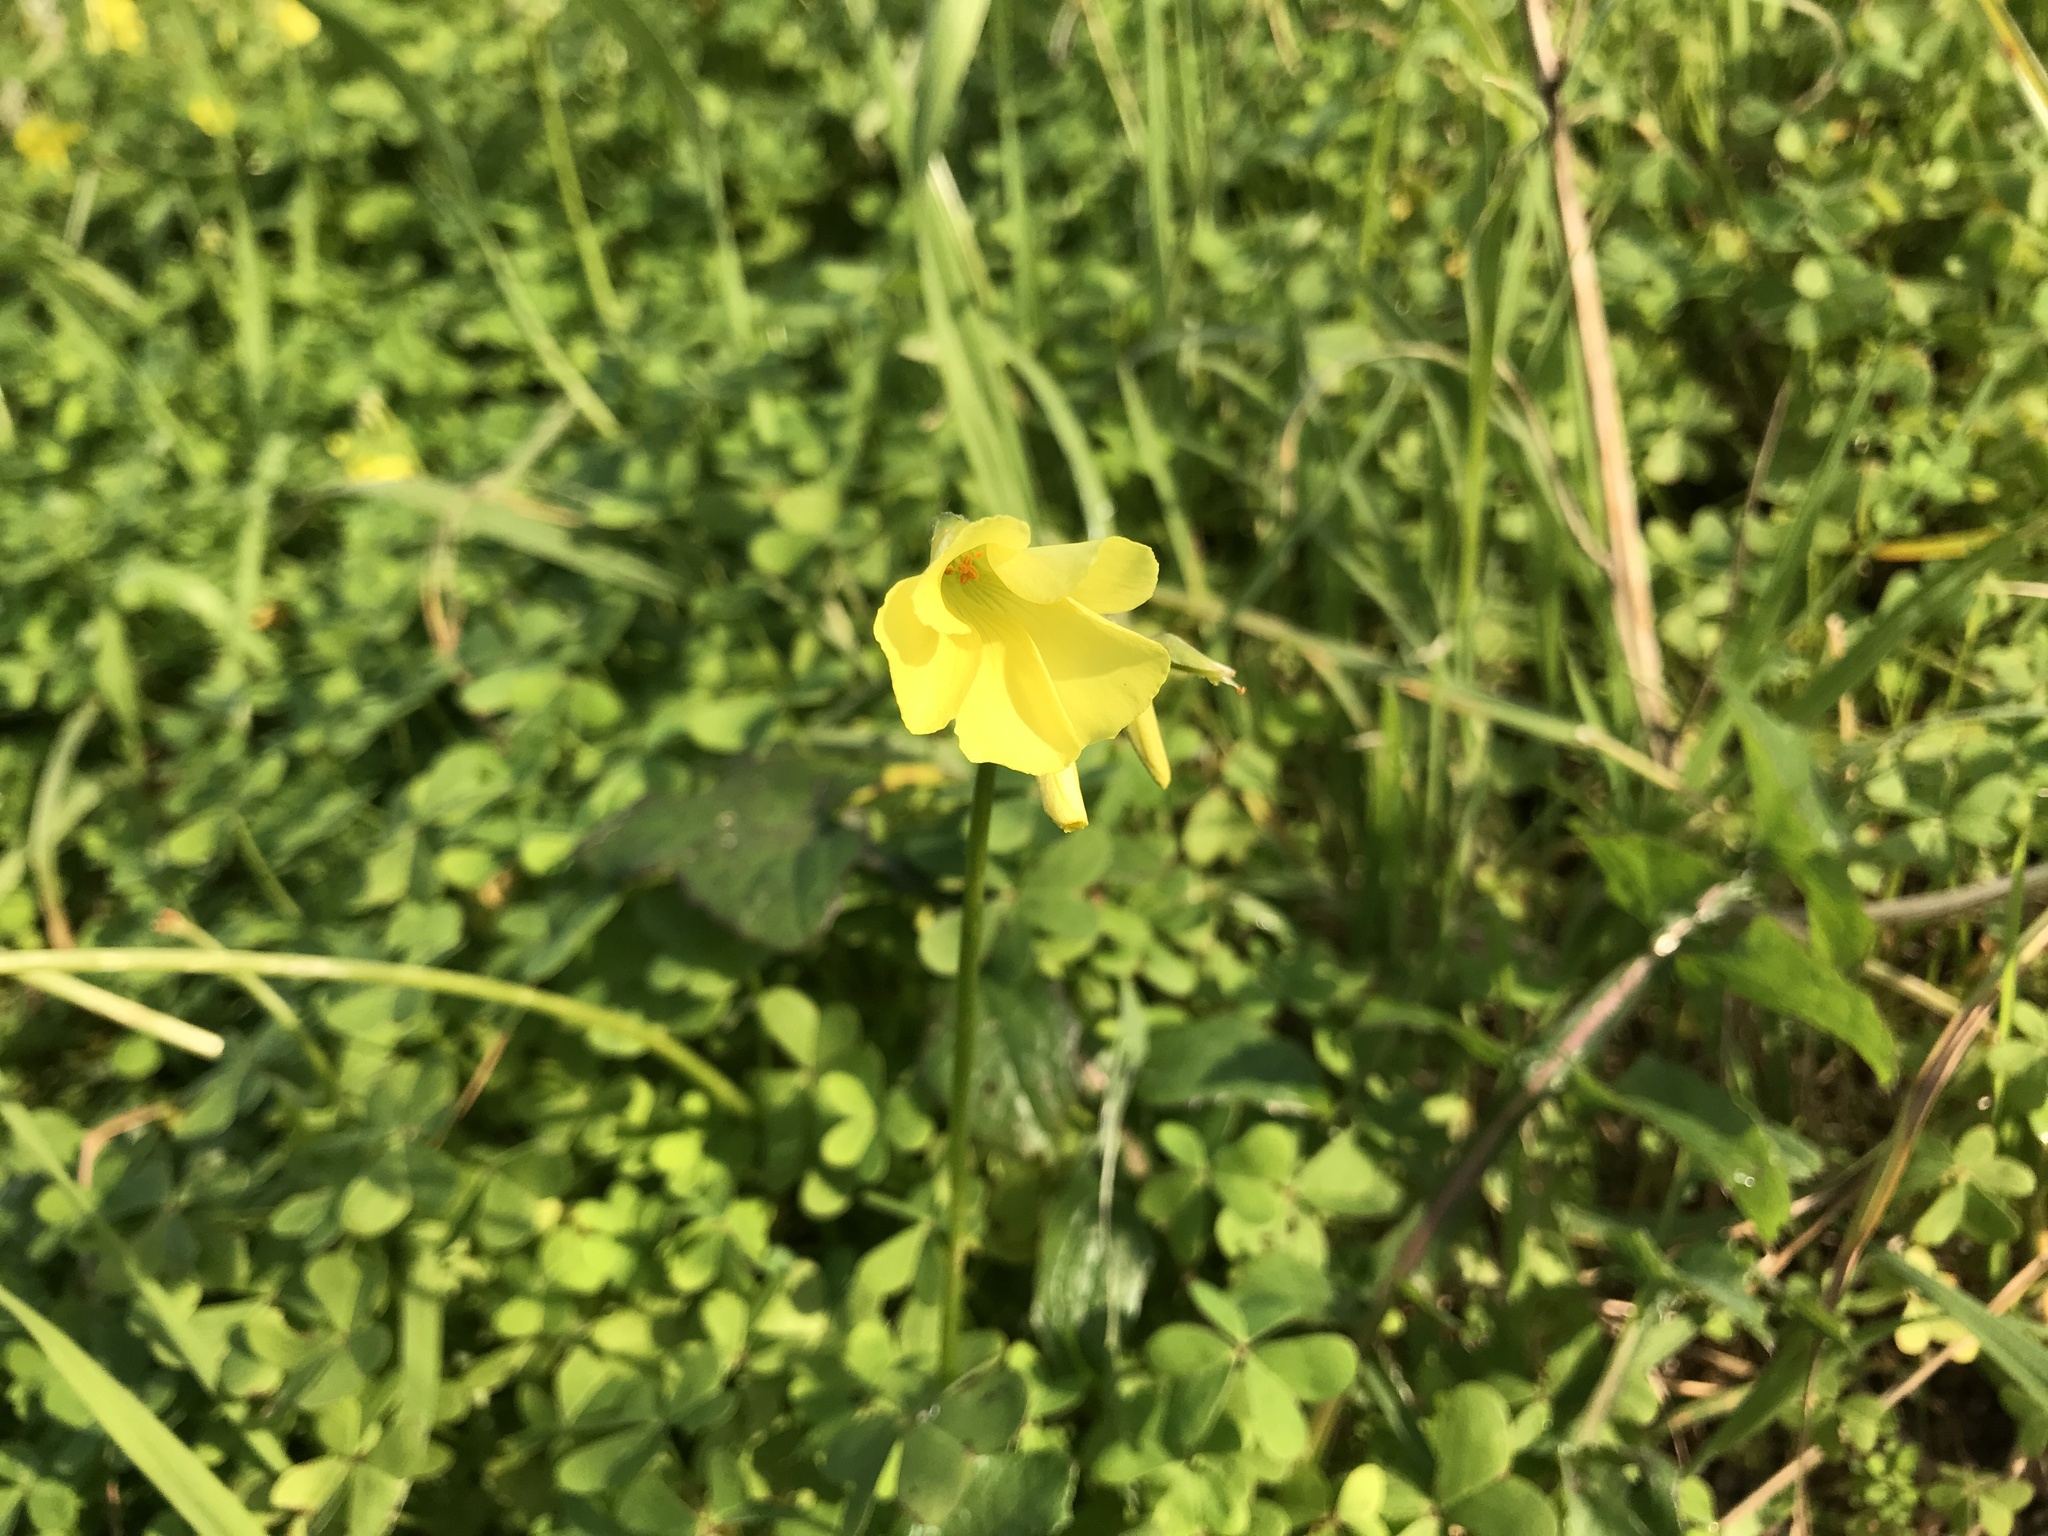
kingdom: Plantae
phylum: Tracheophyta
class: Magnoliopsida
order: Oxalidales
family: Oxalidaceae
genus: Oxalis
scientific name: Oxalis pes-caprae
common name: Bermuda-buttercup
